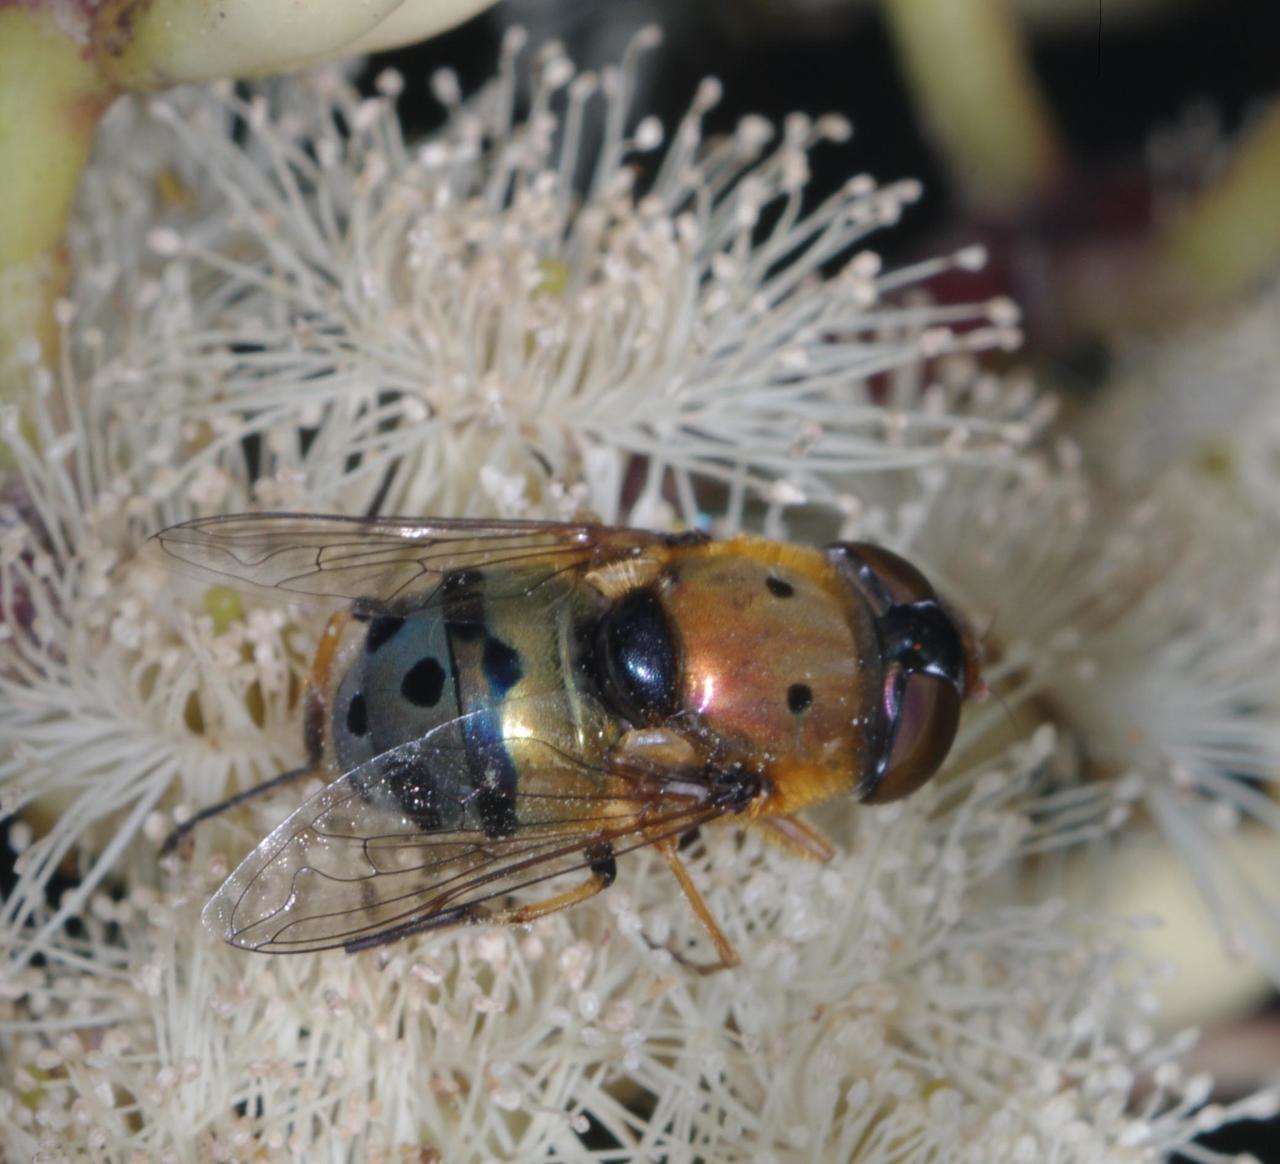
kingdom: Animalia
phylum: Arthropoda
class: Insecta
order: Diptera
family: Syrphidae
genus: Austalis
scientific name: Austalis pulchella
